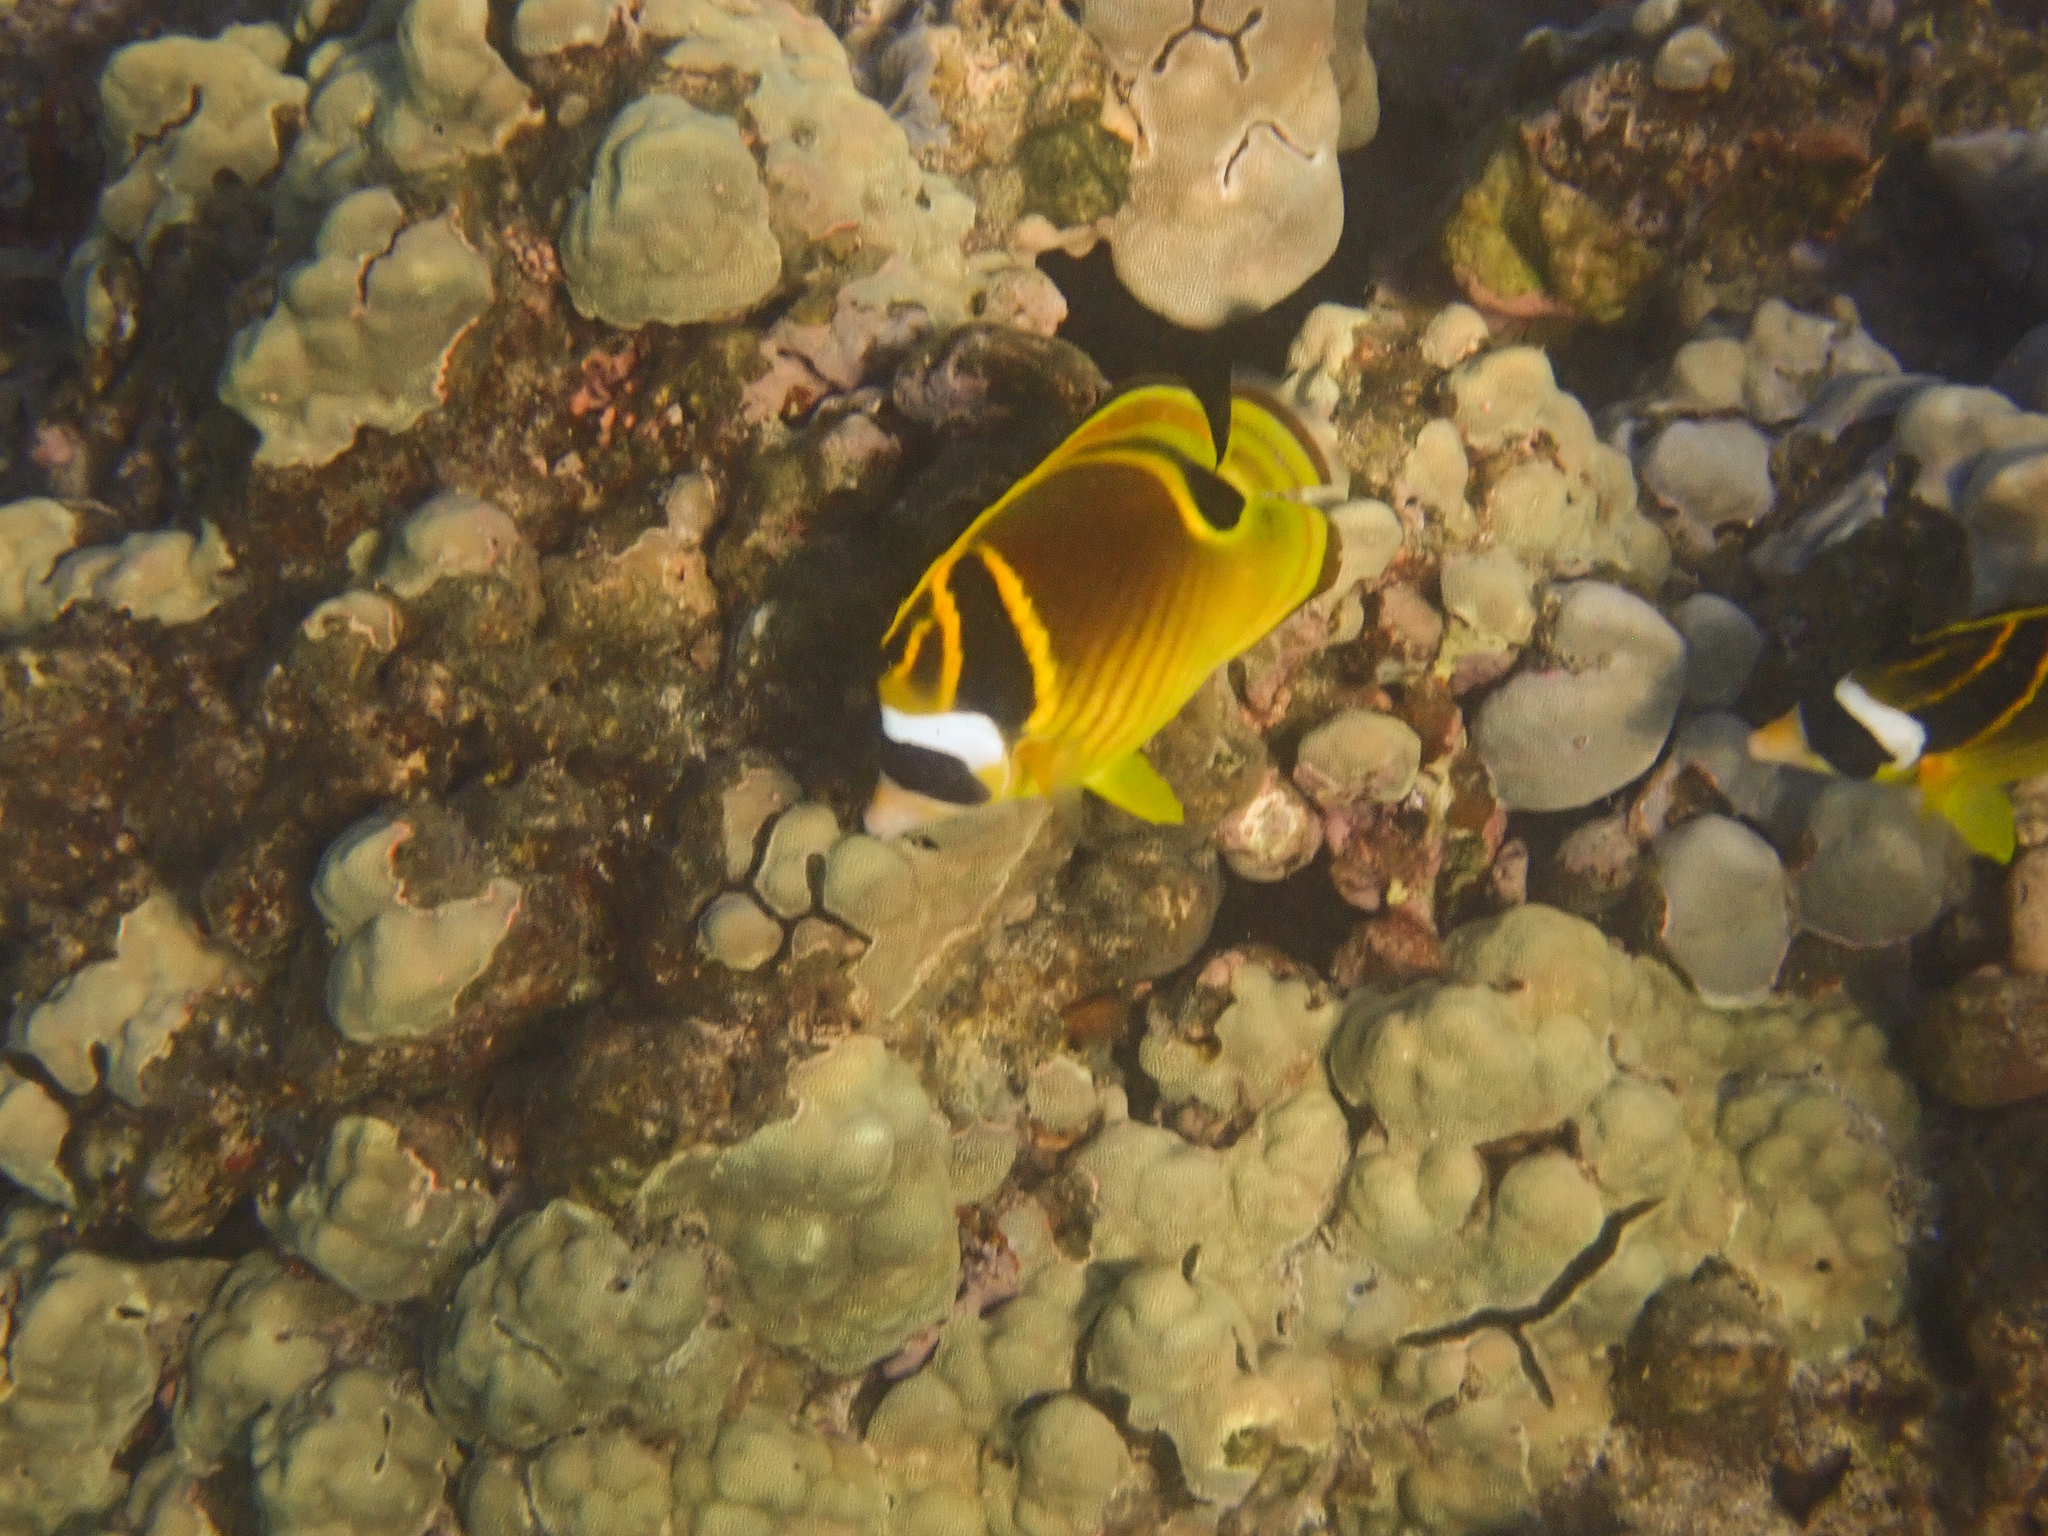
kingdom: Animalia
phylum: Chordata
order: Perciformes
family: Chaetodontidae
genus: Chaetodon
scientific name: Chaetodon lunula
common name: Raccoon butterflyfish
